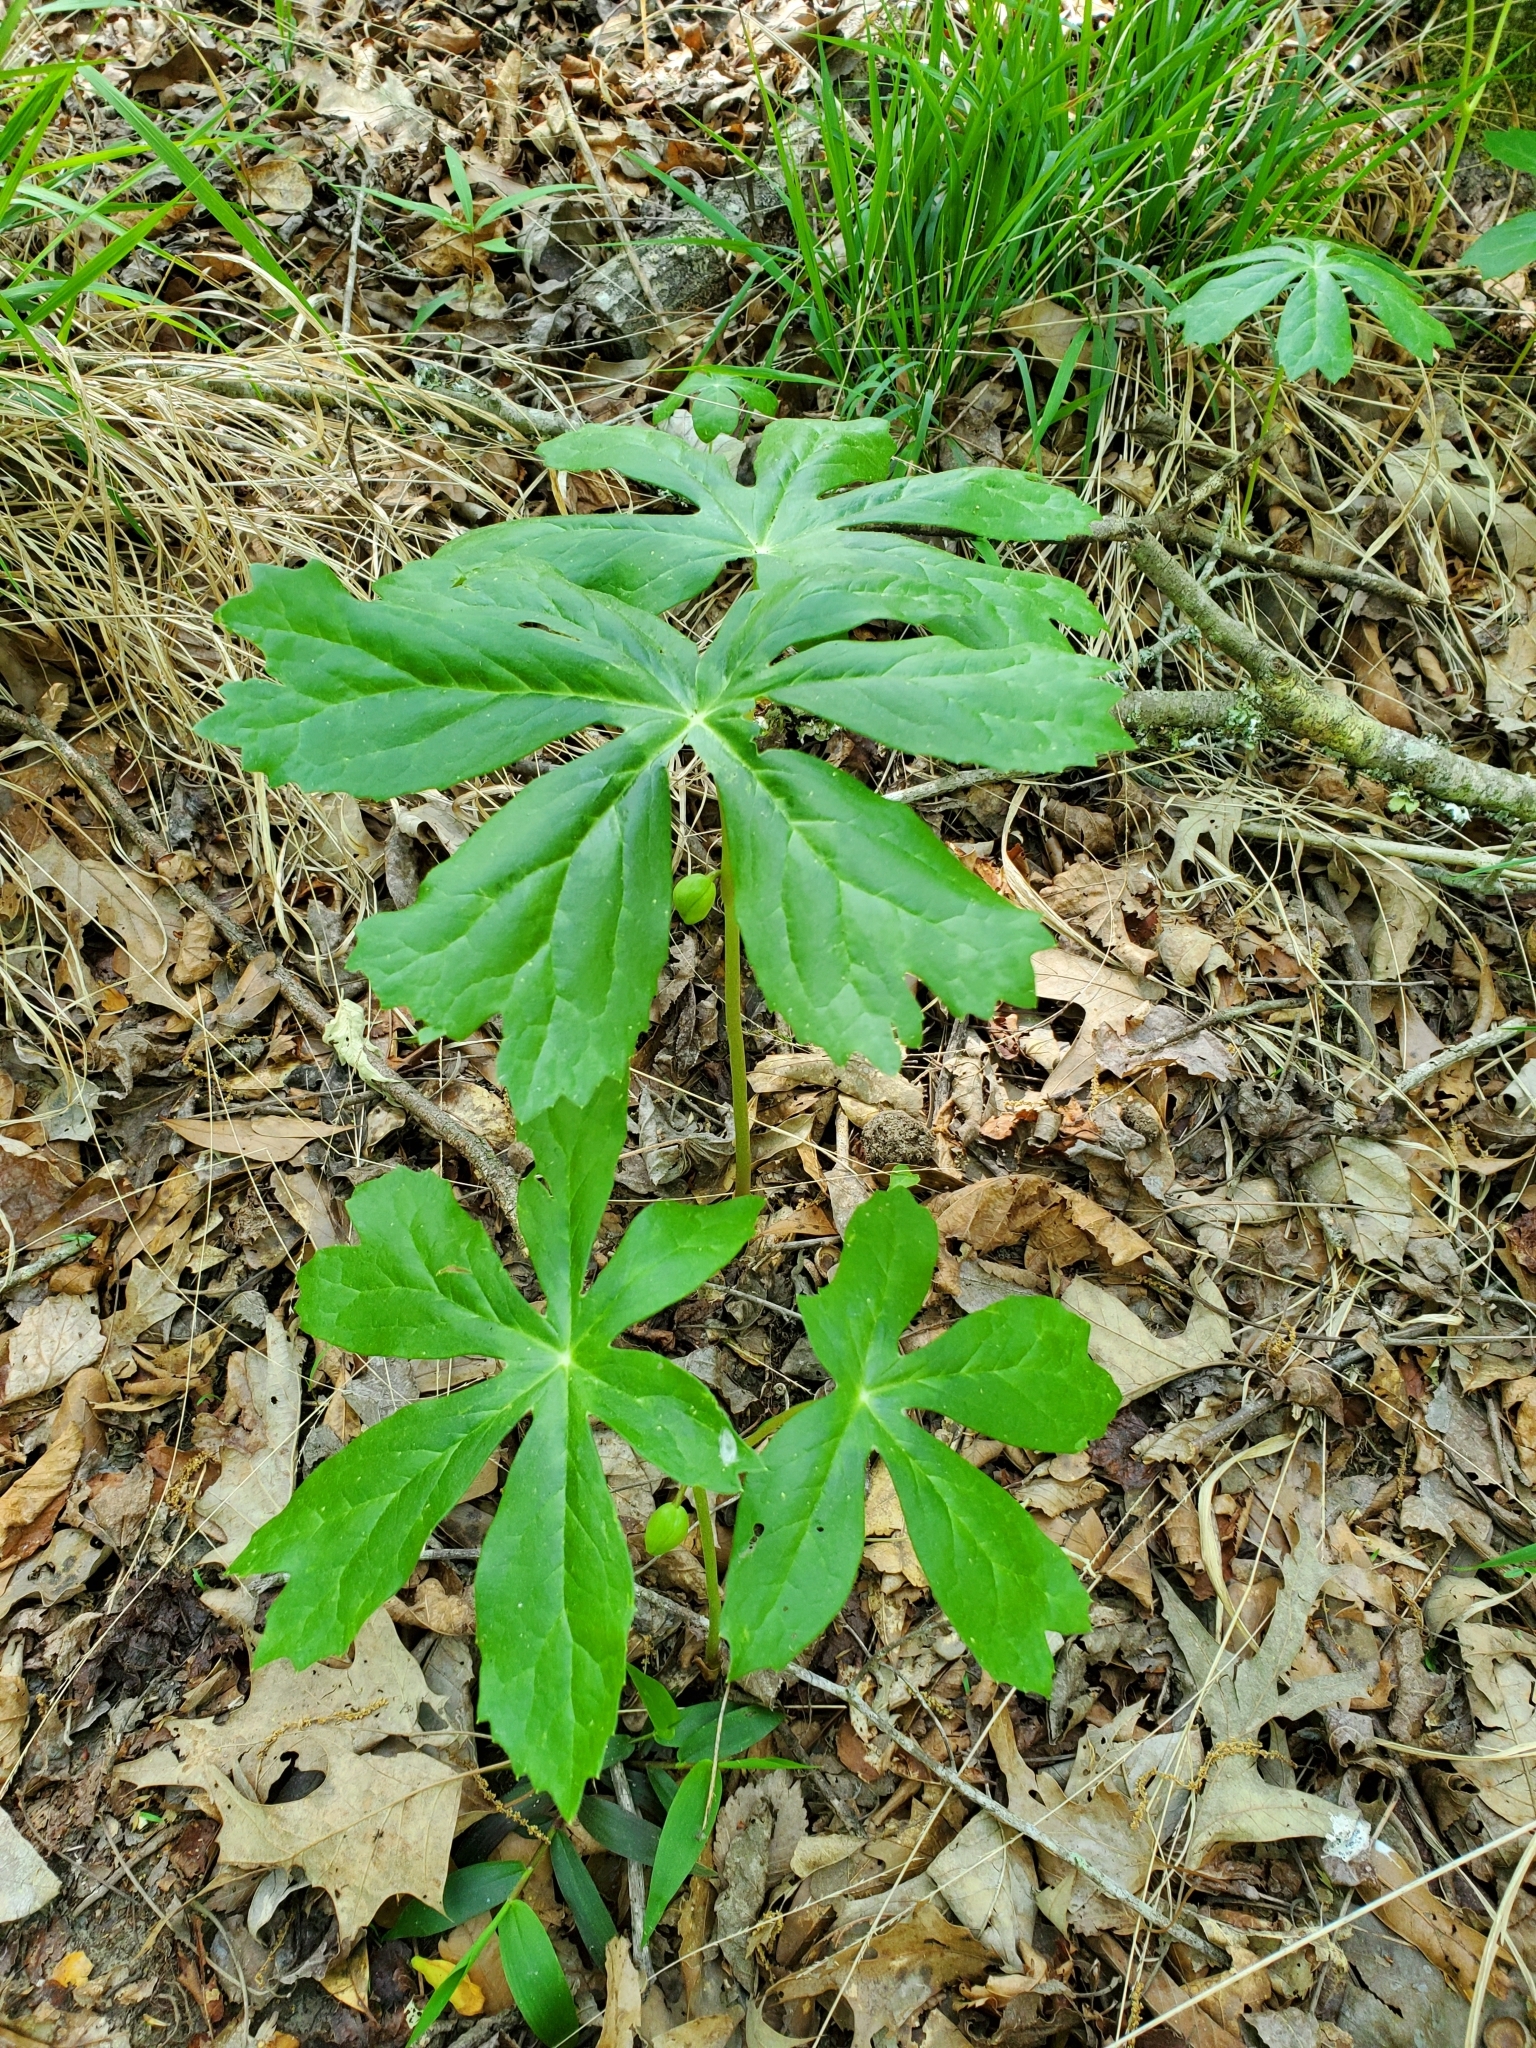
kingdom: Plantae
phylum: Tracheophyta
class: Magnoliopsida
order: Ranunculales
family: Berberidaceae
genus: Podophyllum
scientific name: Podophyllum peltatum
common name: Wild mandrake
